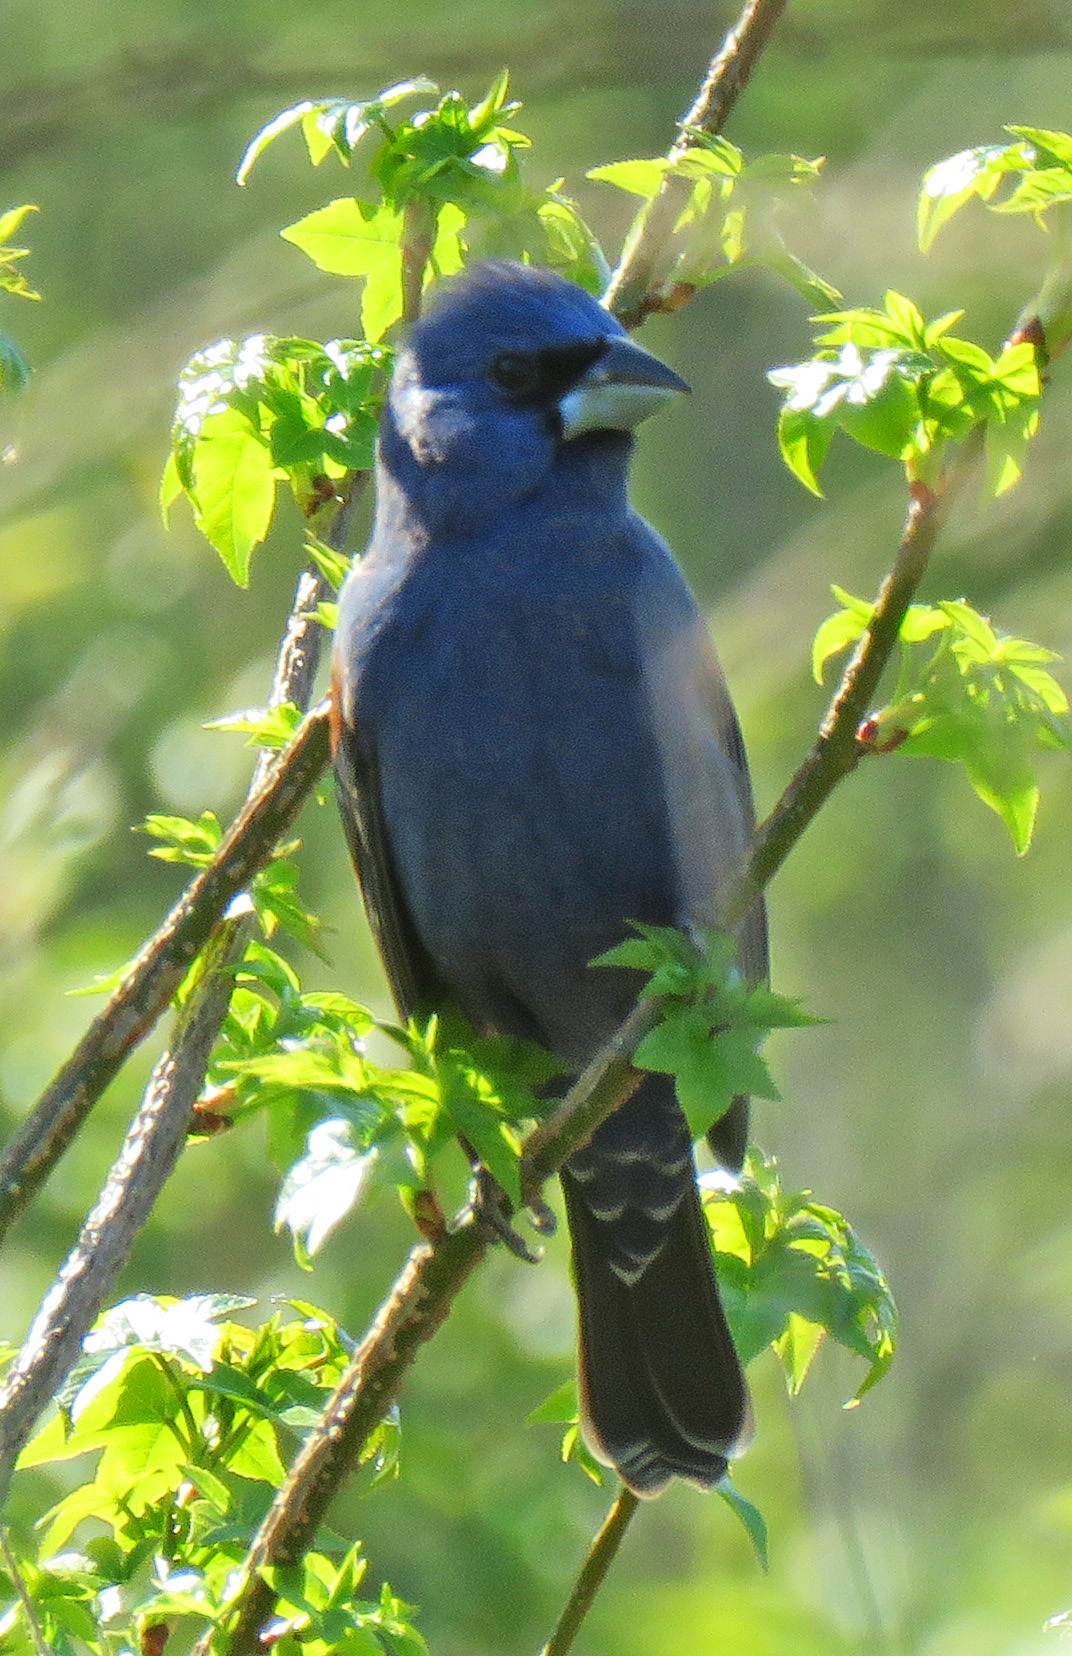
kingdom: Animalia
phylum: Chordata
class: Aves
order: Passeriformes
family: Cardinalidae
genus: Passerina
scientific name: Passerina caerulea
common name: Blue grosbeak
